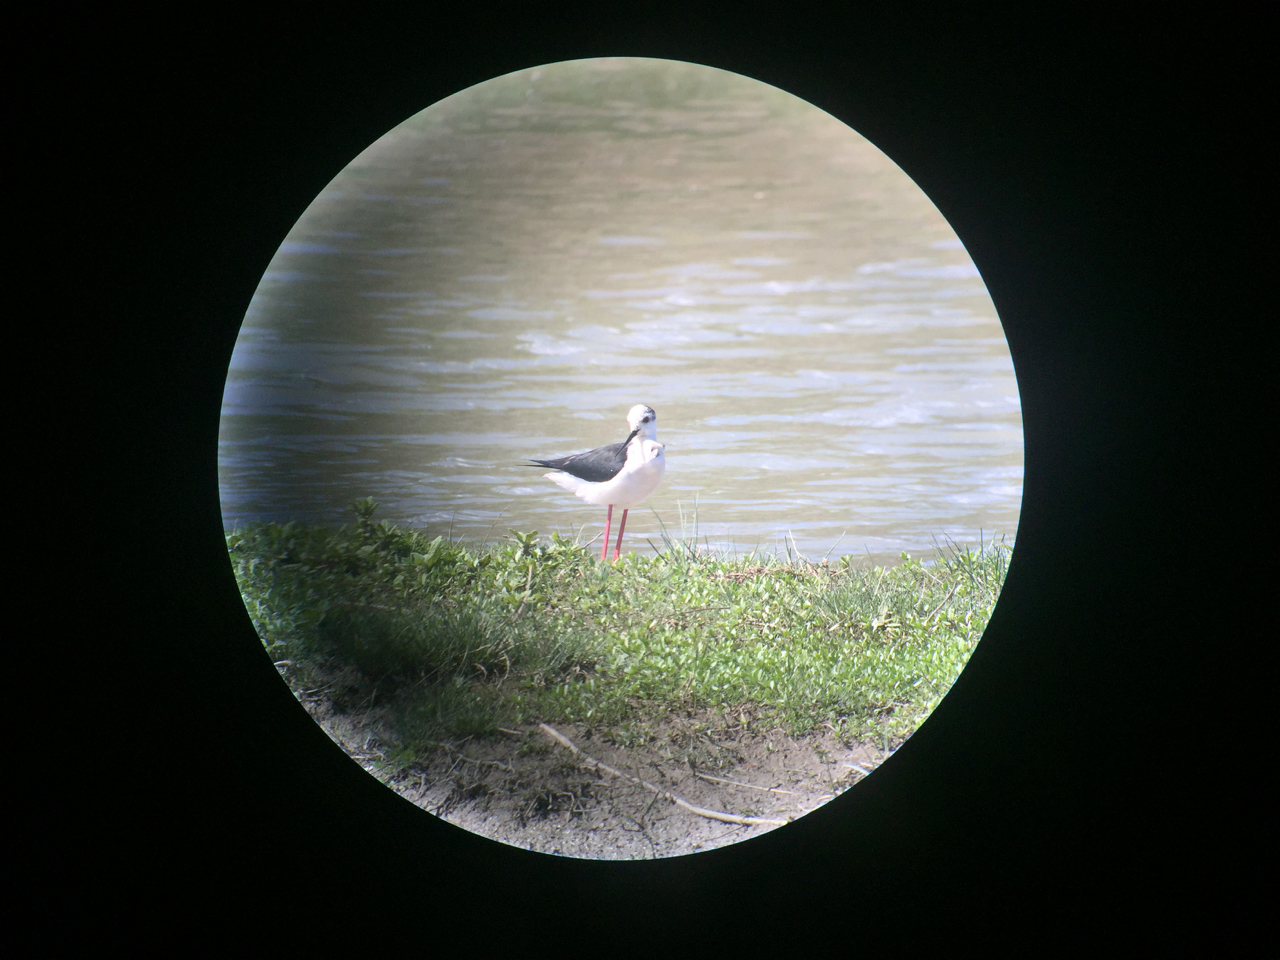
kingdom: Animalia
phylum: Chordata
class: Aves
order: Charadriiformes
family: Recurvirostridae
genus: Himantopus
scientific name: Himantopus himantopus
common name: Black-winged stilt
